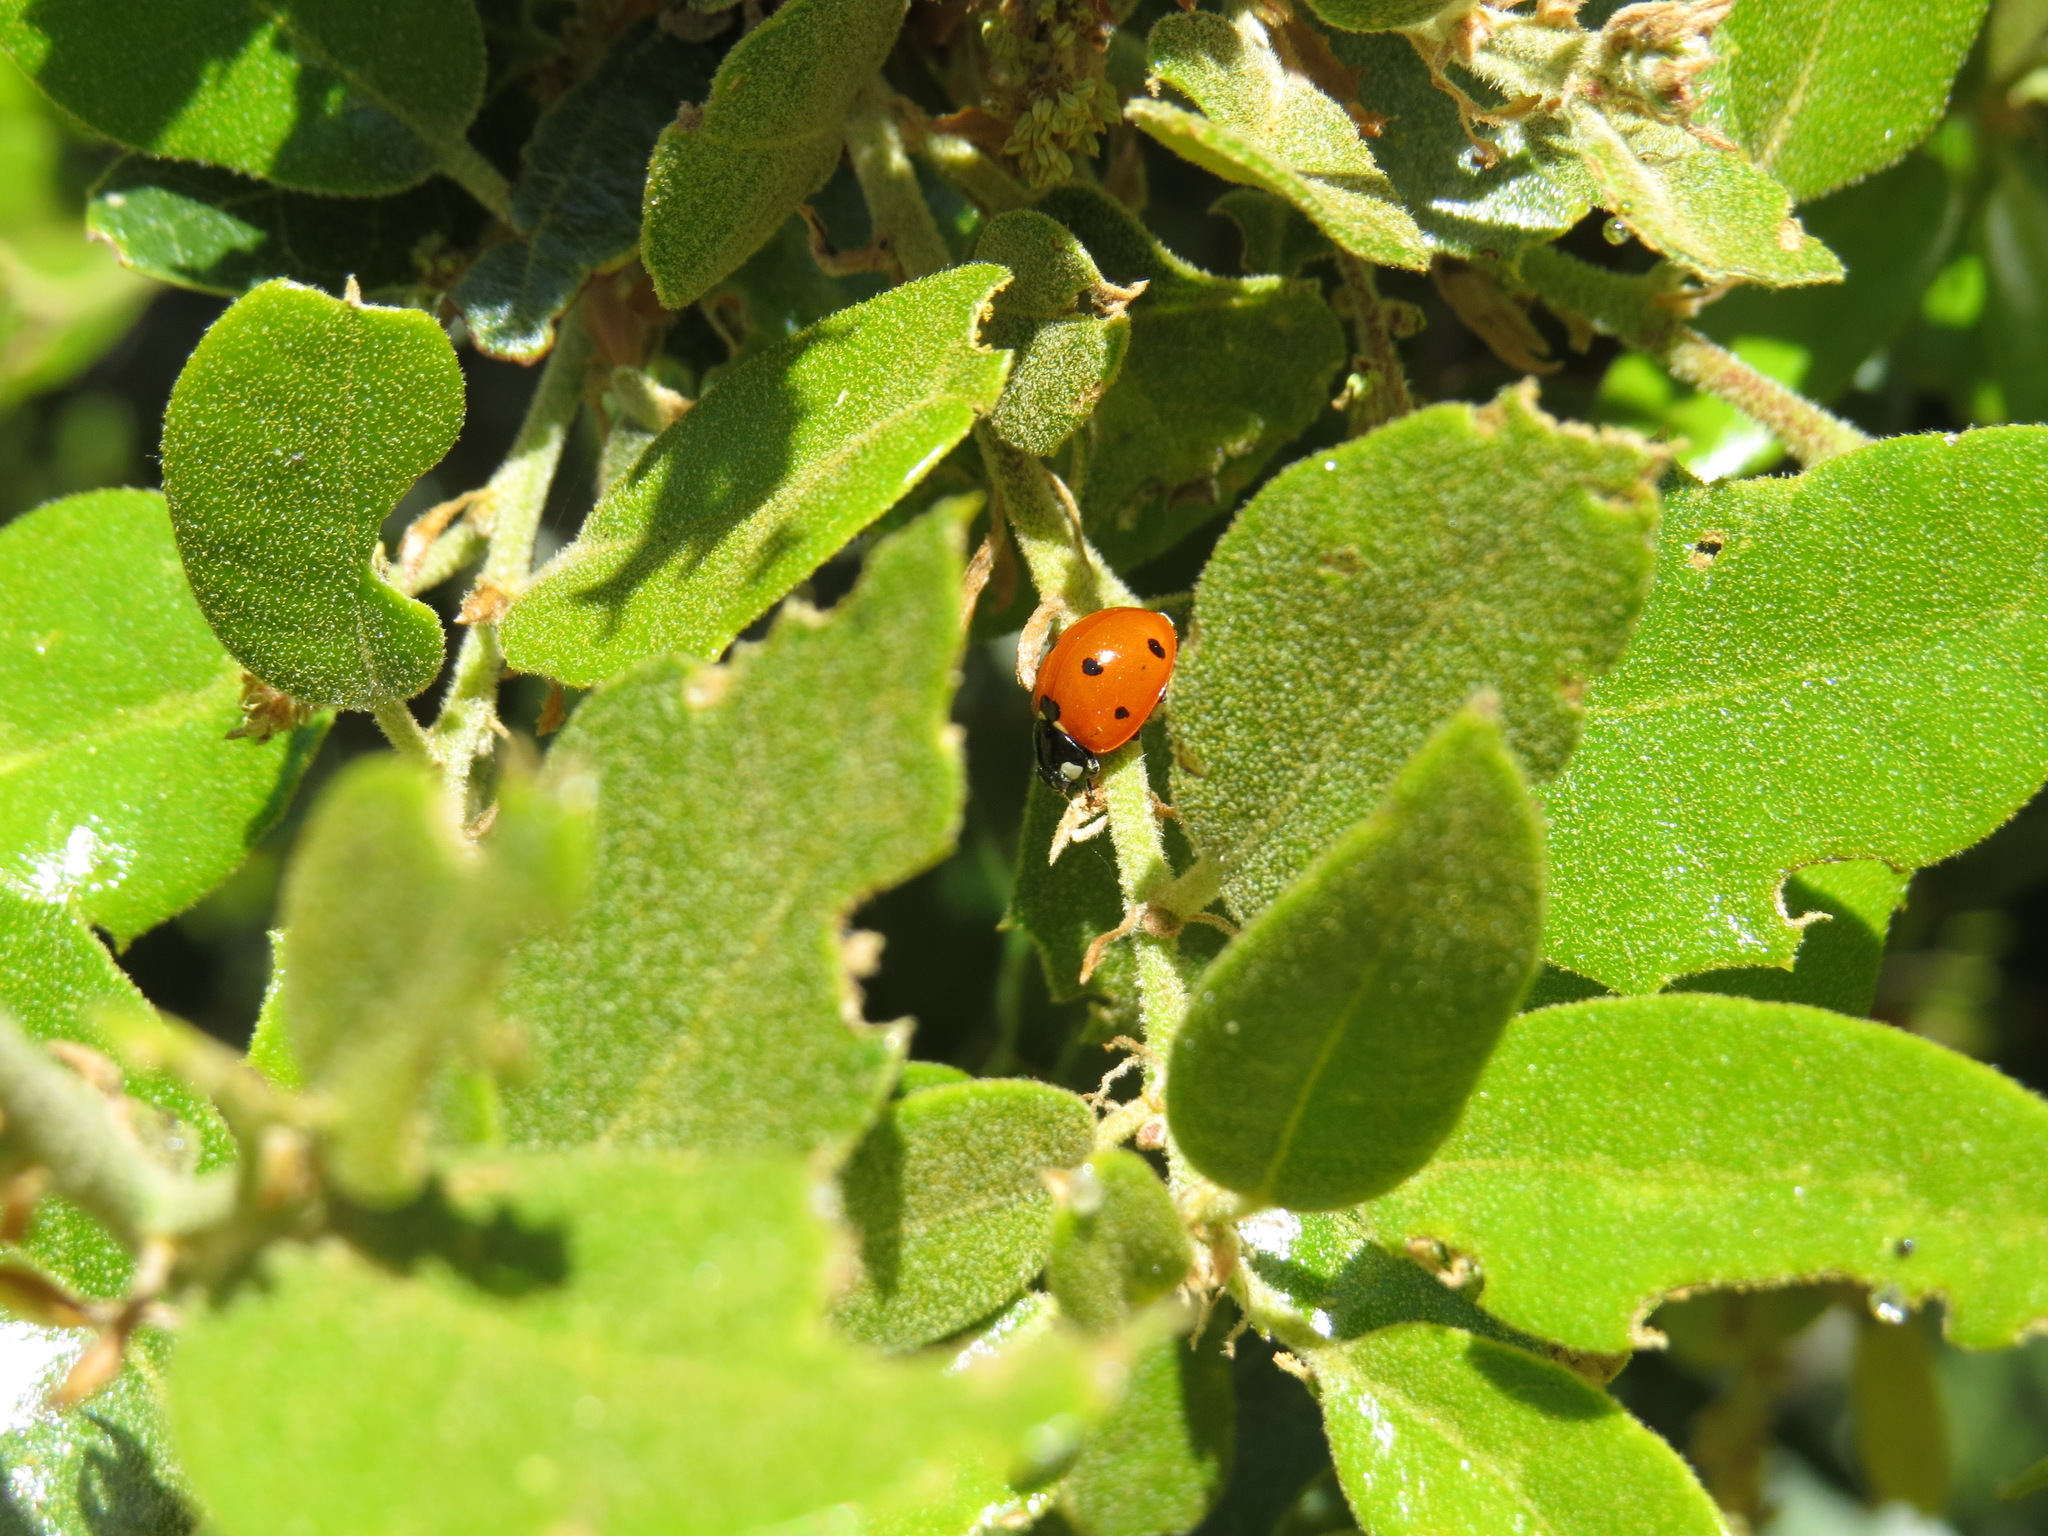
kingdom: Animalia
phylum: Arthropoda
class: Insecta
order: Coleoptera
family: Coccinellidae
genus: Coccinella
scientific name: Coccinella septempunctata
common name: Sevenspotted lady beetle
